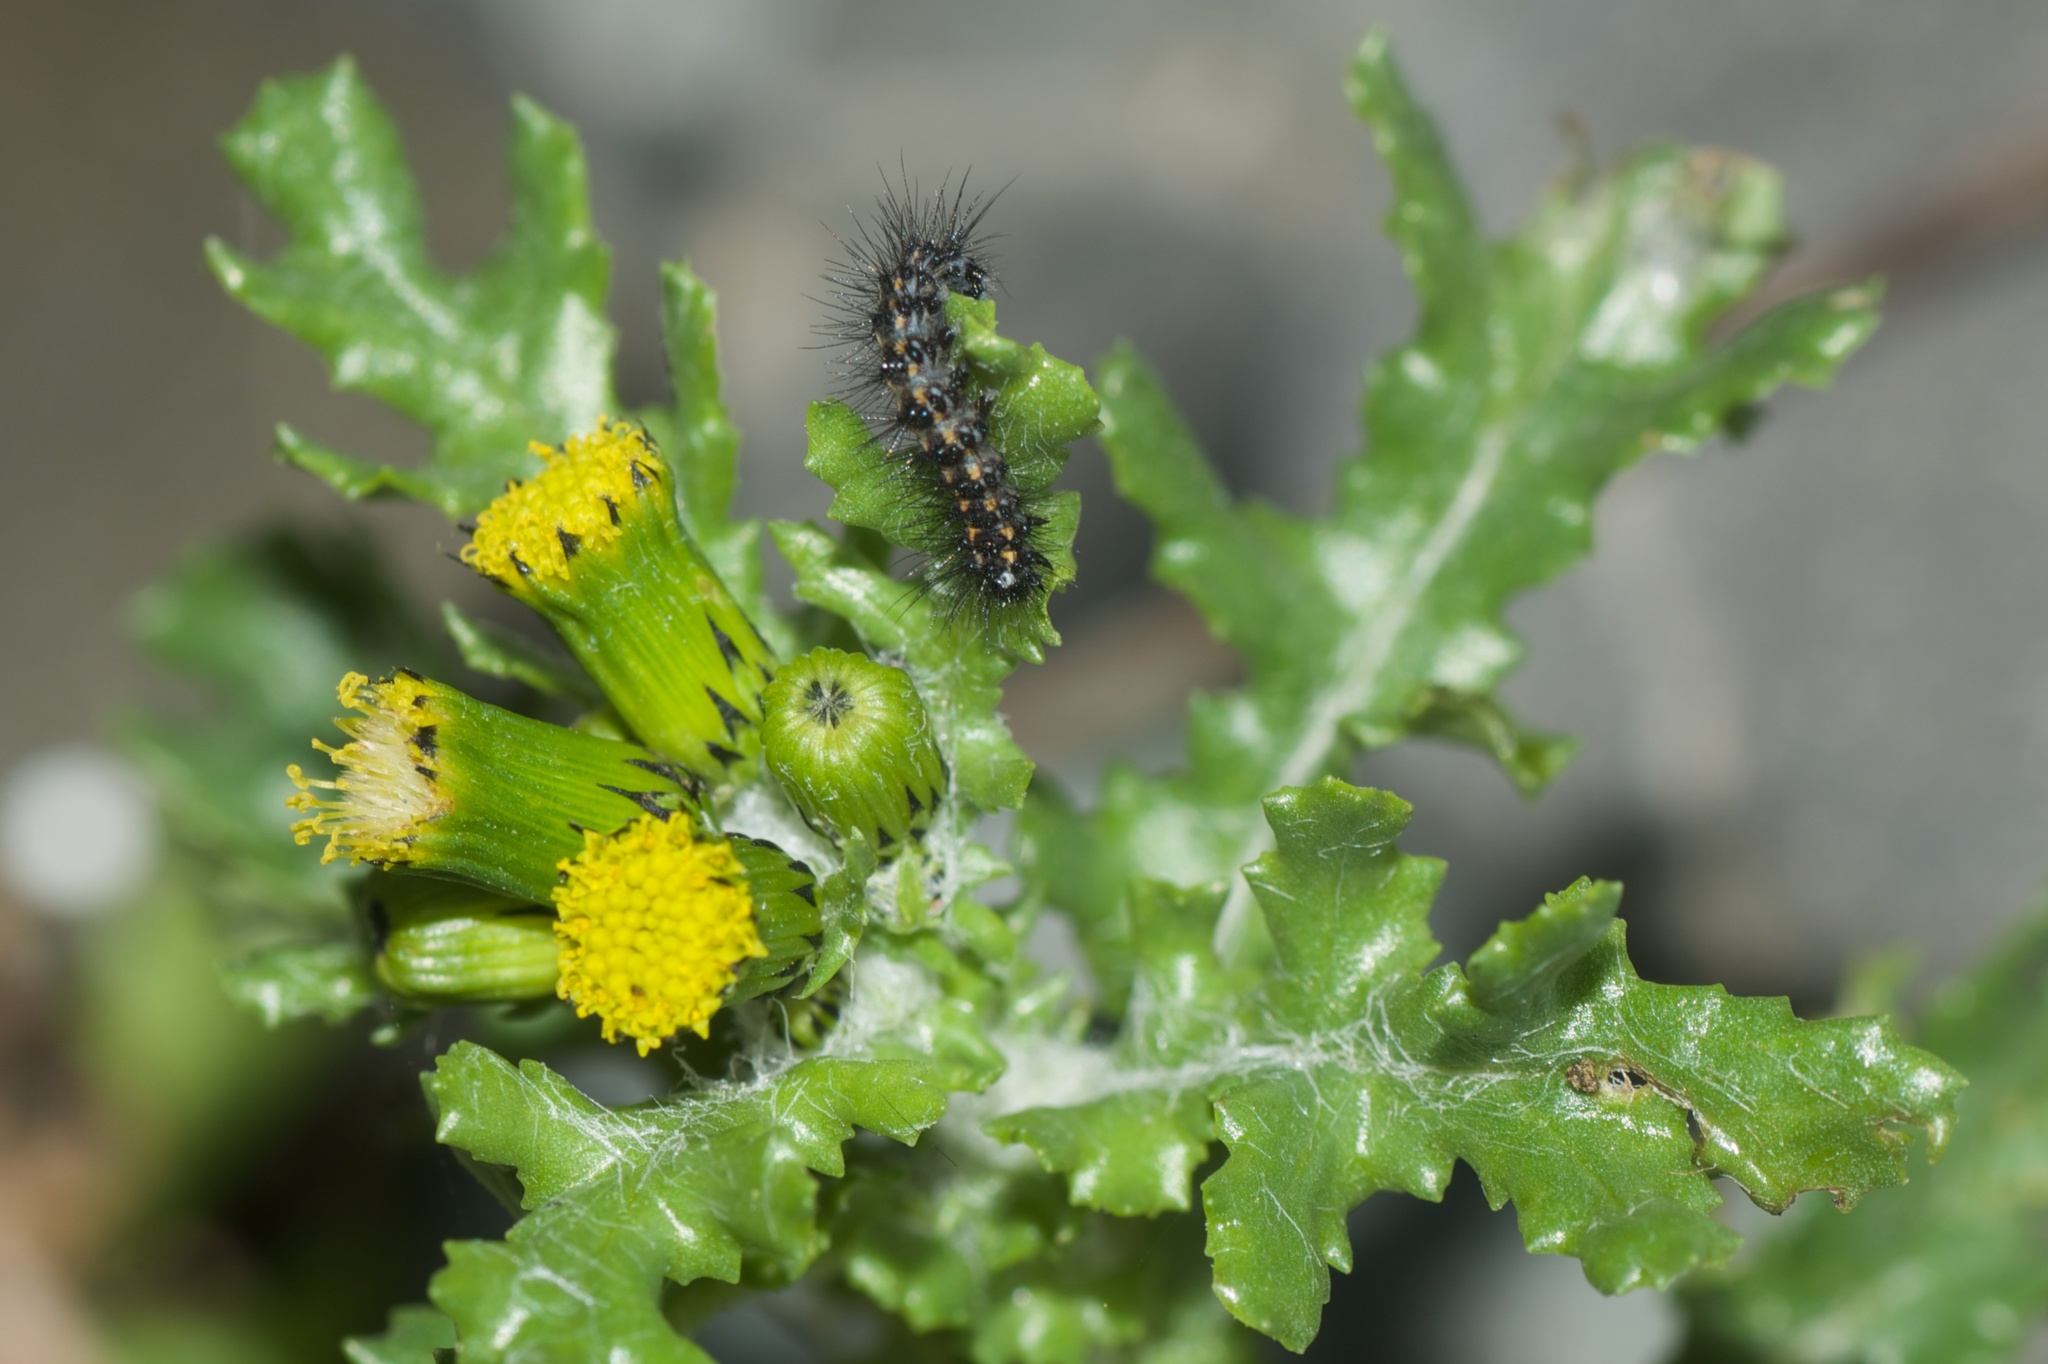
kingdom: Animalia
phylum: Arthropoda
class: Insecta
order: Lepidoptera
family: Erebidae
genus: Nyctemera
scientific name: Nyctemera annulatum
